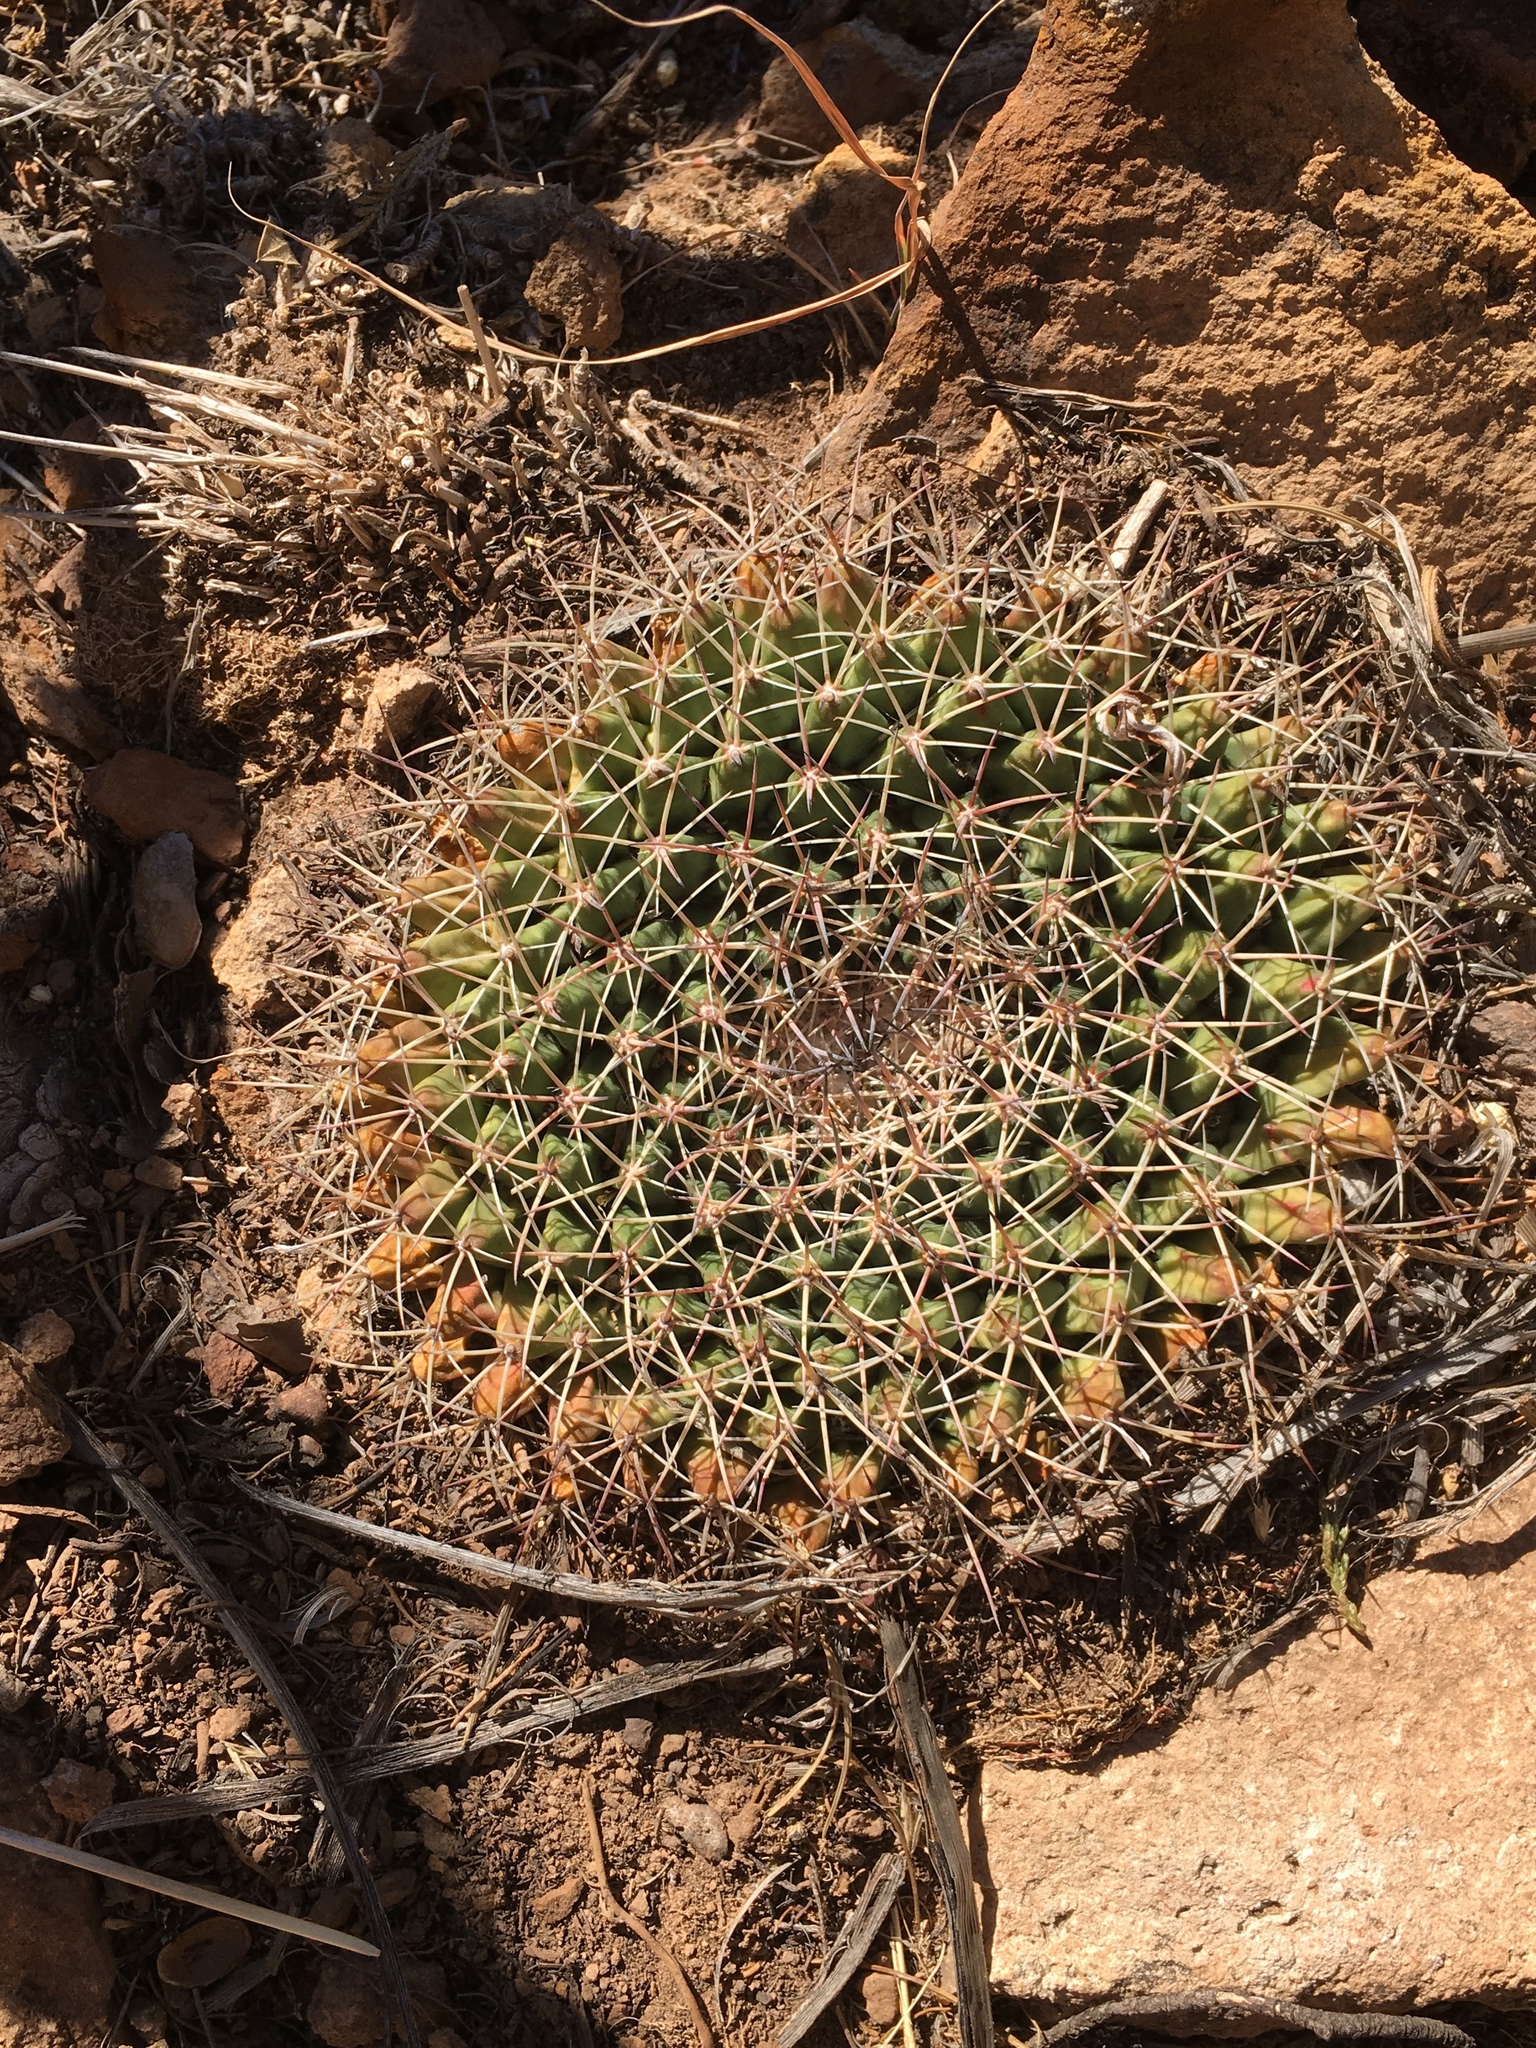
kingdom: Plantae
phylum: Tracheophyta
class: Magnoliopsida
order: Caryophyllales
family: Cactaceae
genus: Mammillaria
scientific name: Mammillaria heyderi
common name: Little nipple cactus
